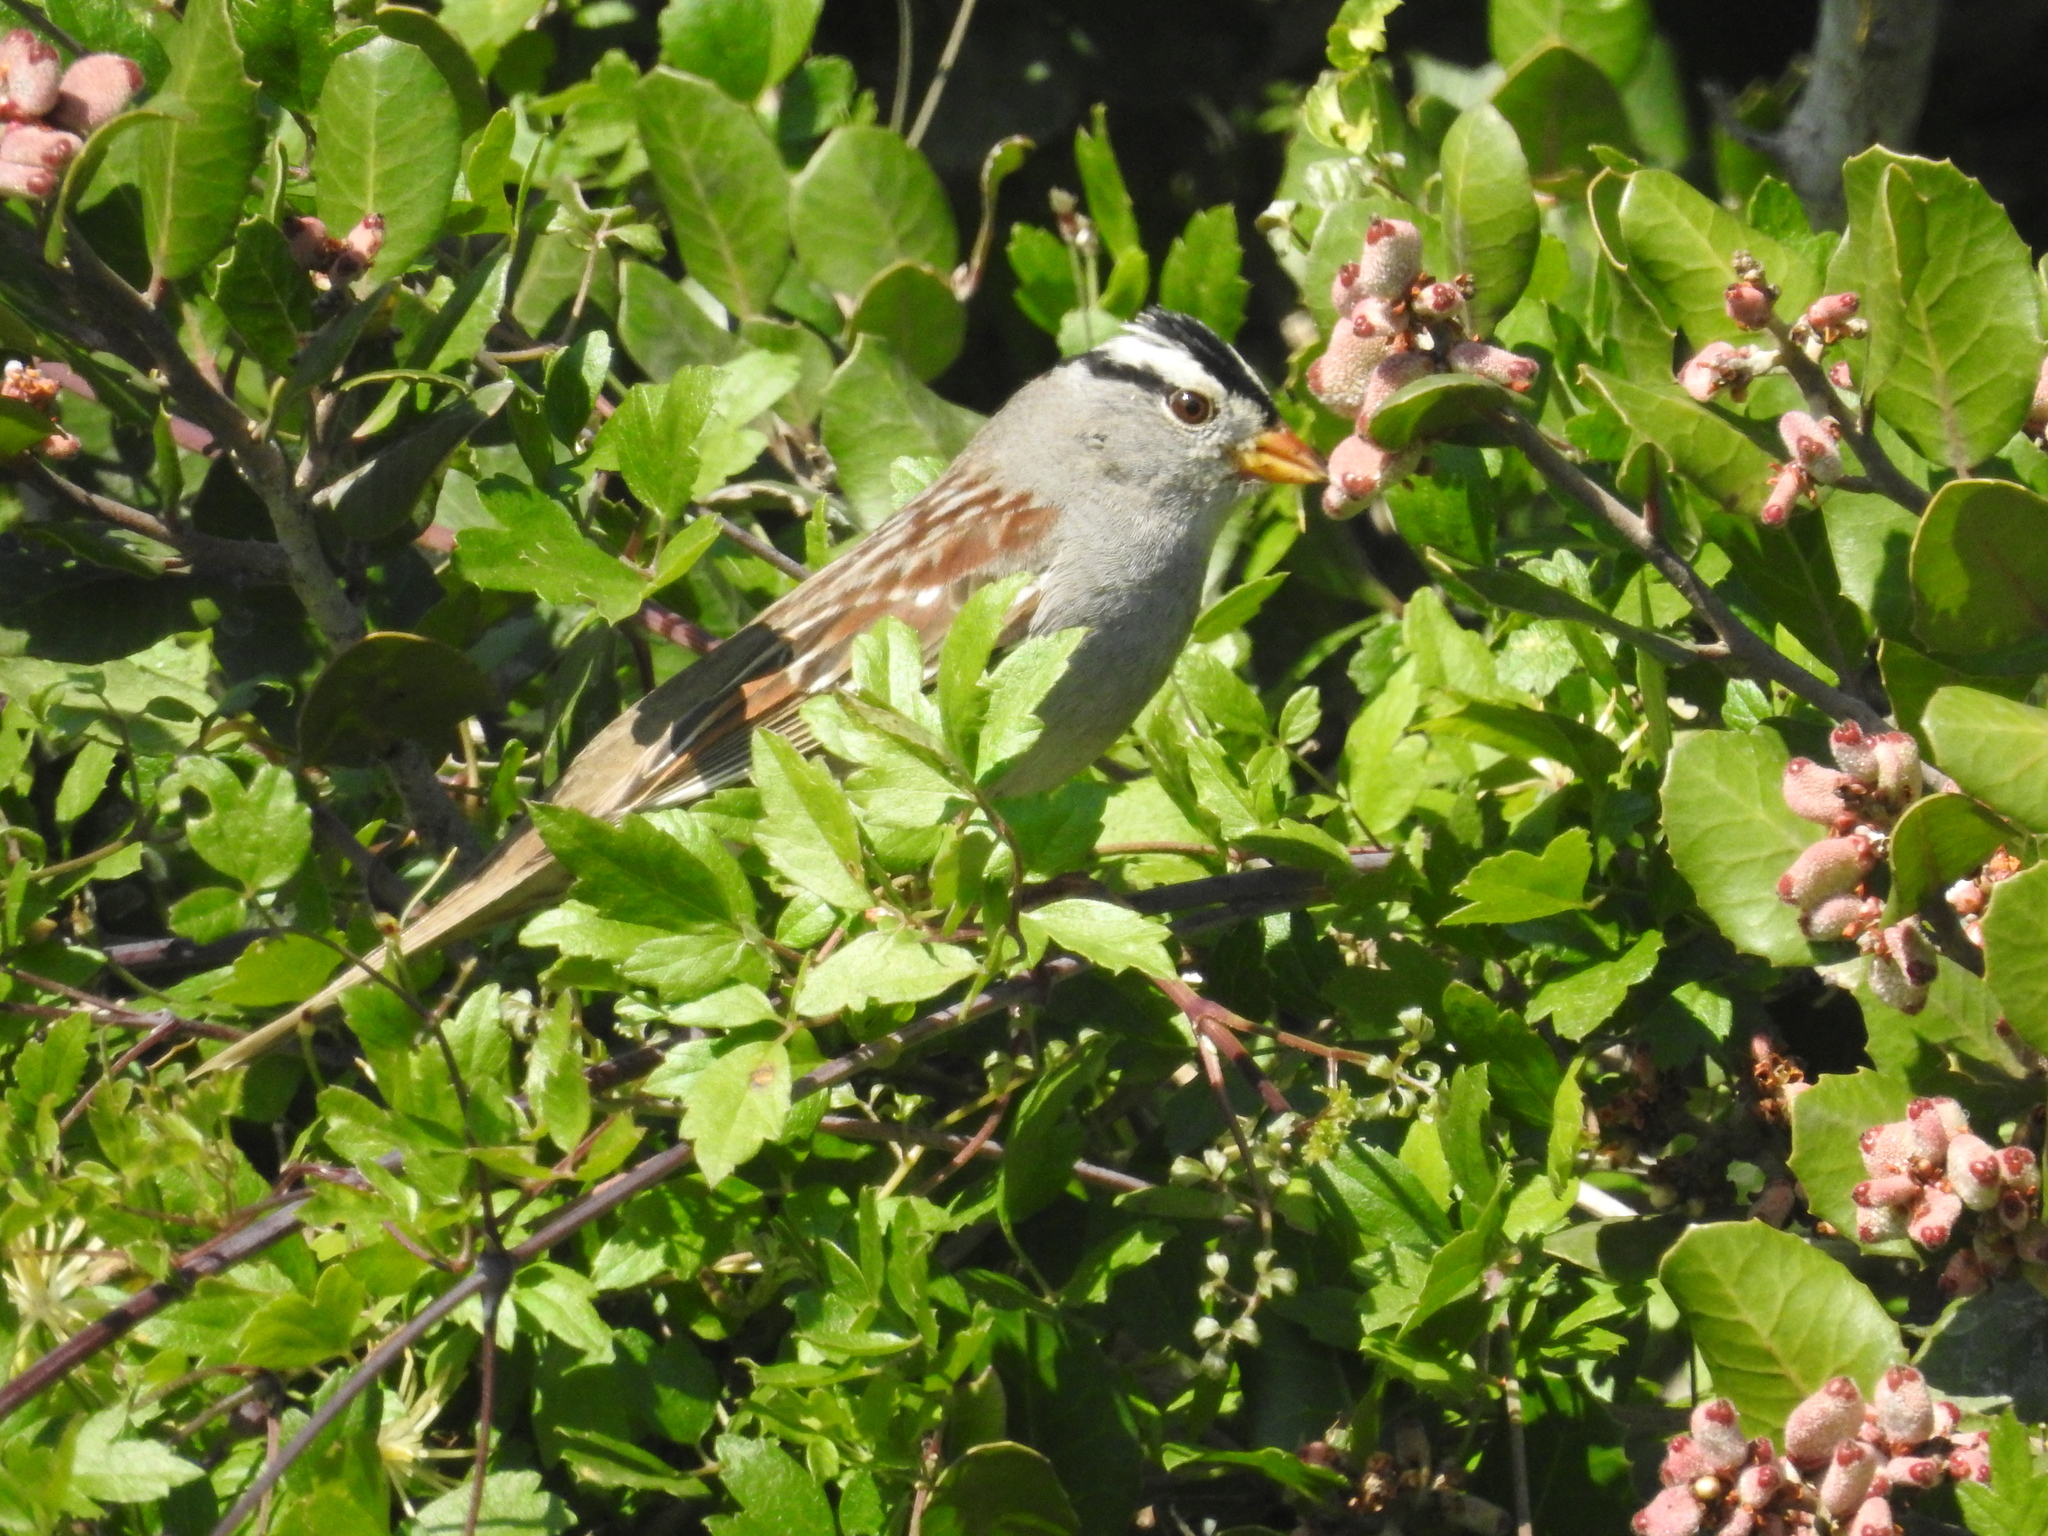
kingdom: Animalia
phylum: Chordata
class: Aves
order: Passeriformes
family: Passerellidae
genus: Zonotrichia
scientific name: Zonotrichia leucophrys
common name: White-crowned sparrow
